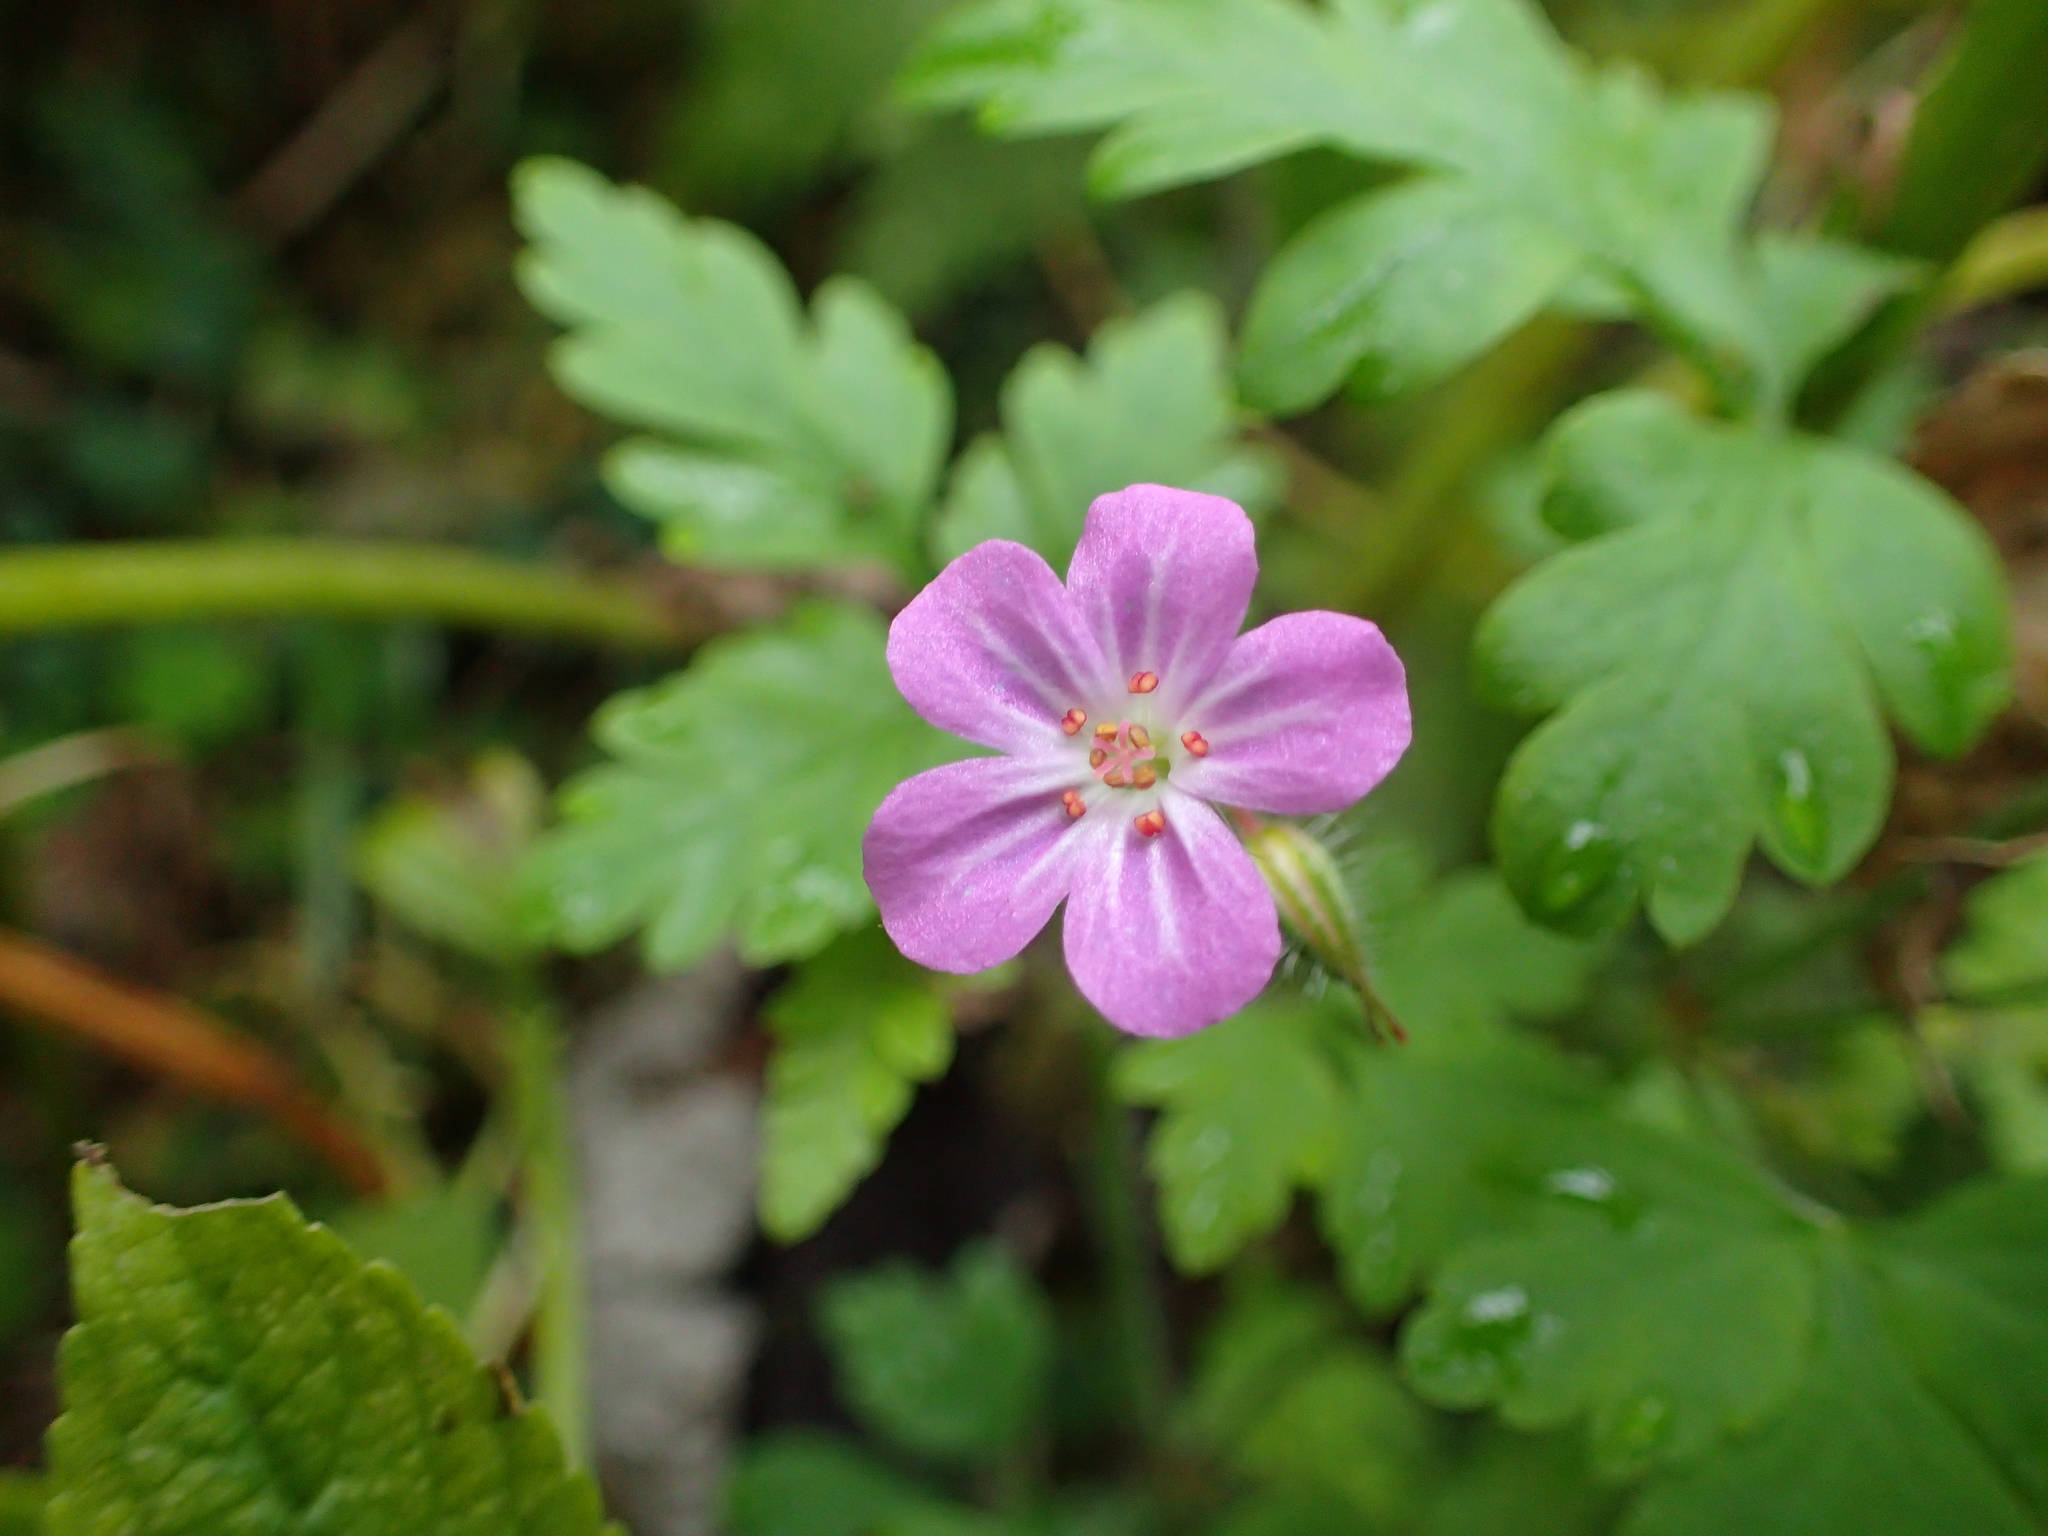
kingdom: Plantae
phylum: Tracheophyta
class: Magnoliopsida
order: Geraniales
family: Geraniaceae
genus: Geranium
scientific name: Geranium robertianum
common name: Herb-robert
